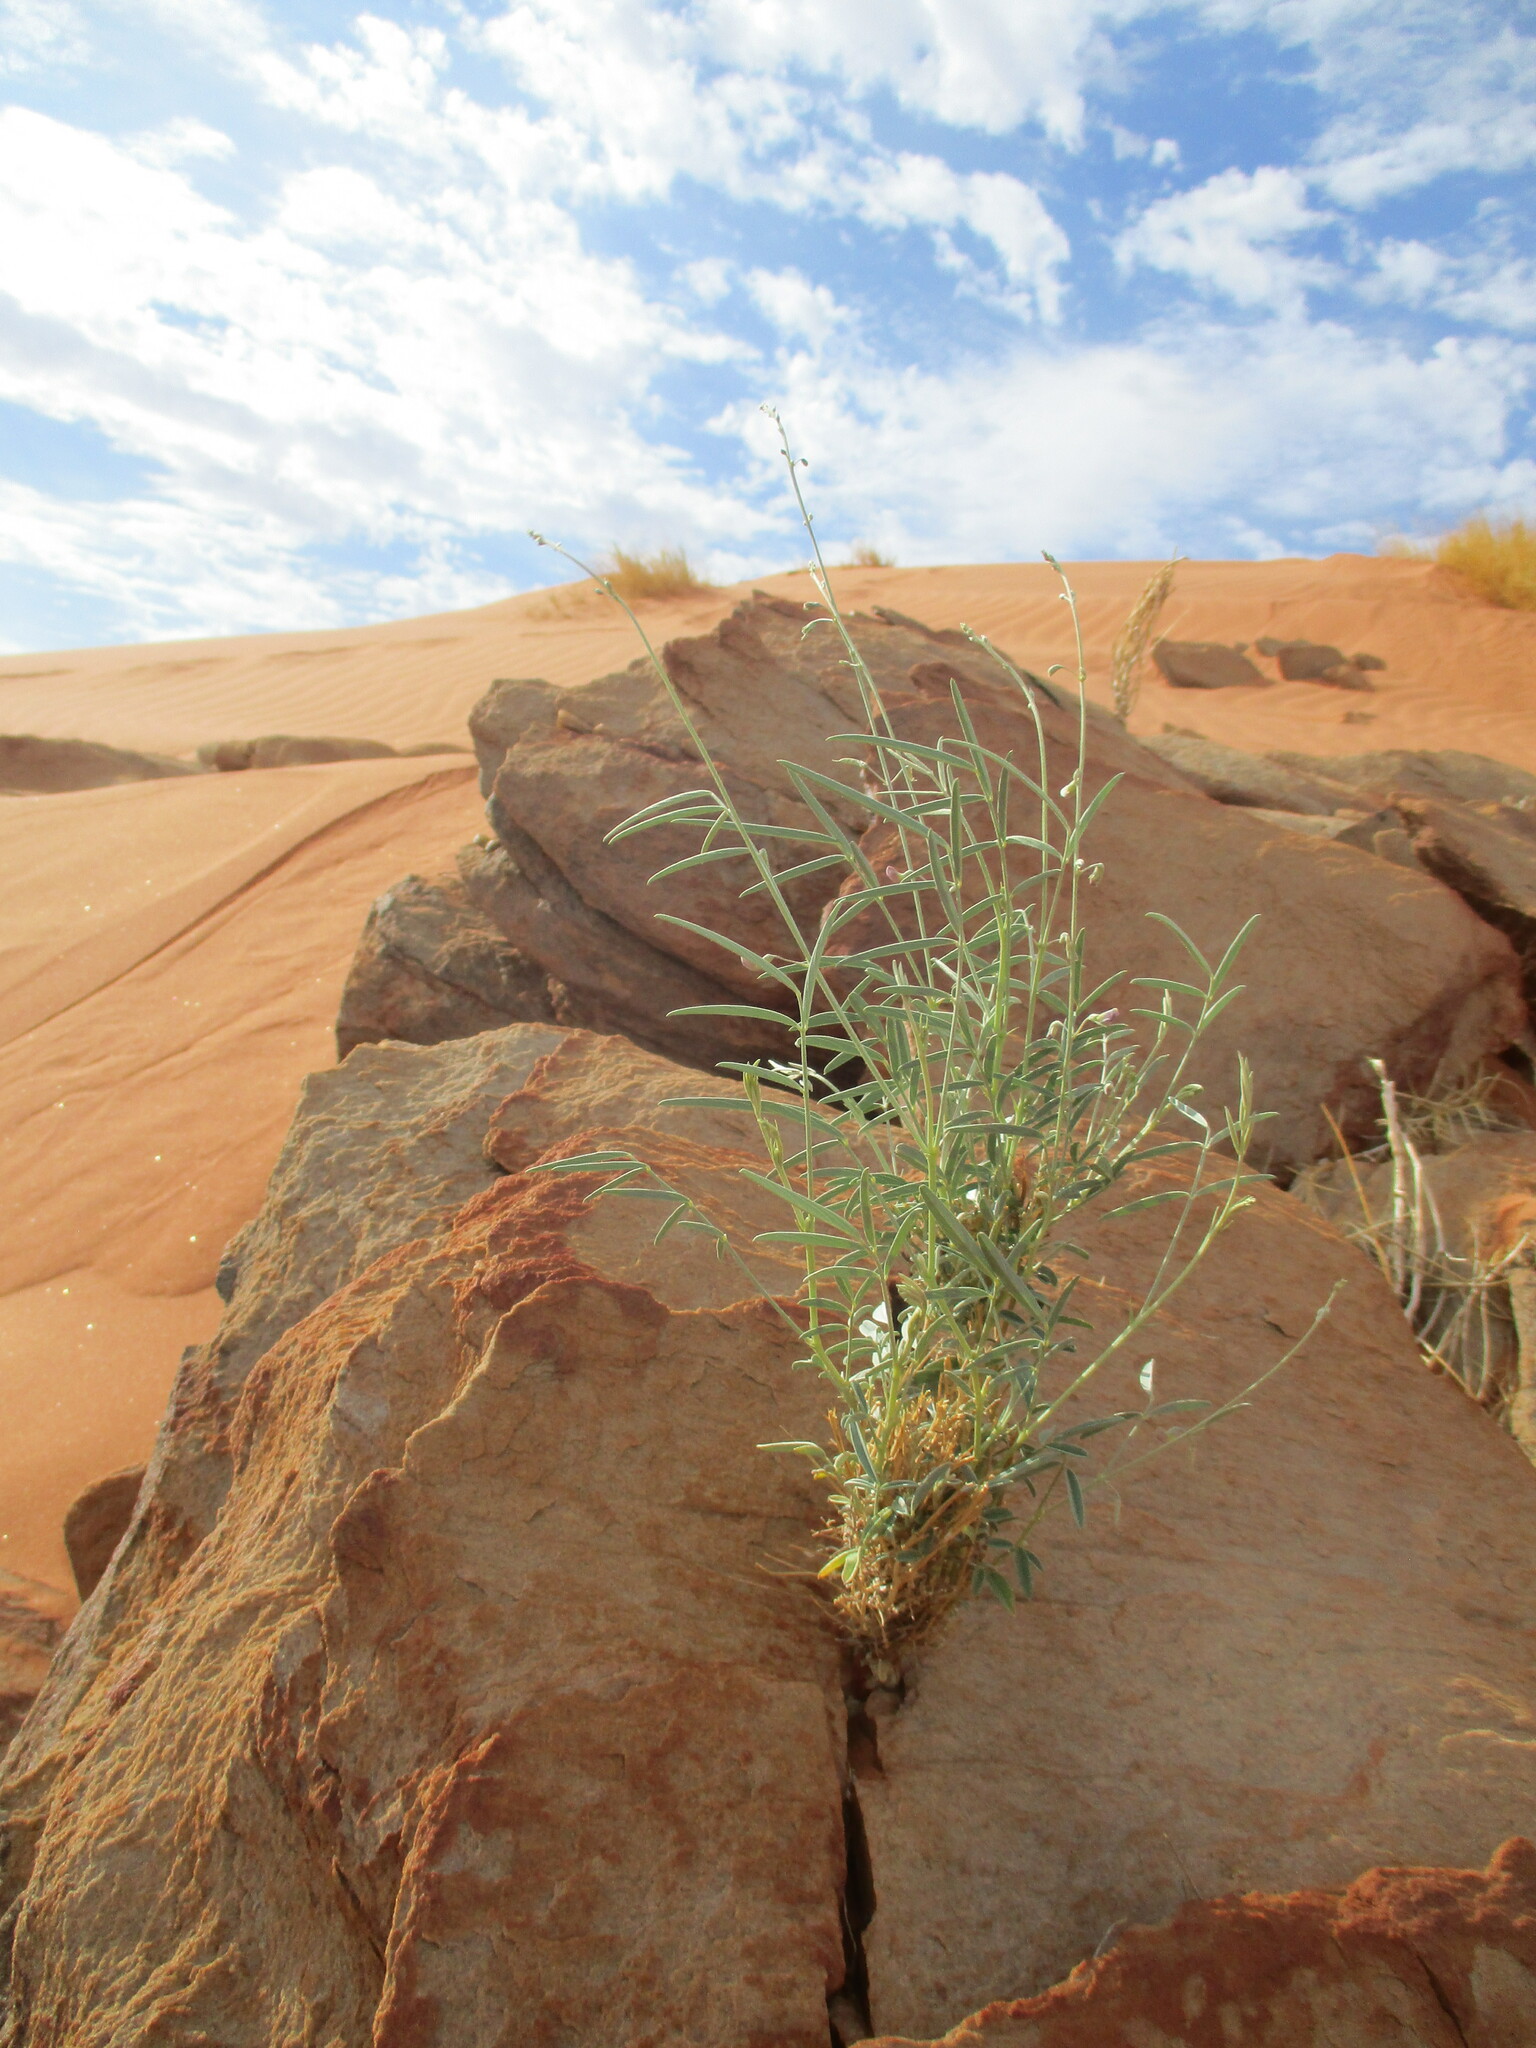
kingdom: Plantae
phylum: Tracheophyta
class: Magnoliopsida
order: Fabales
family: Fabaceae
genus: Tephrosia
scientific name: Tephrosia dregeana
